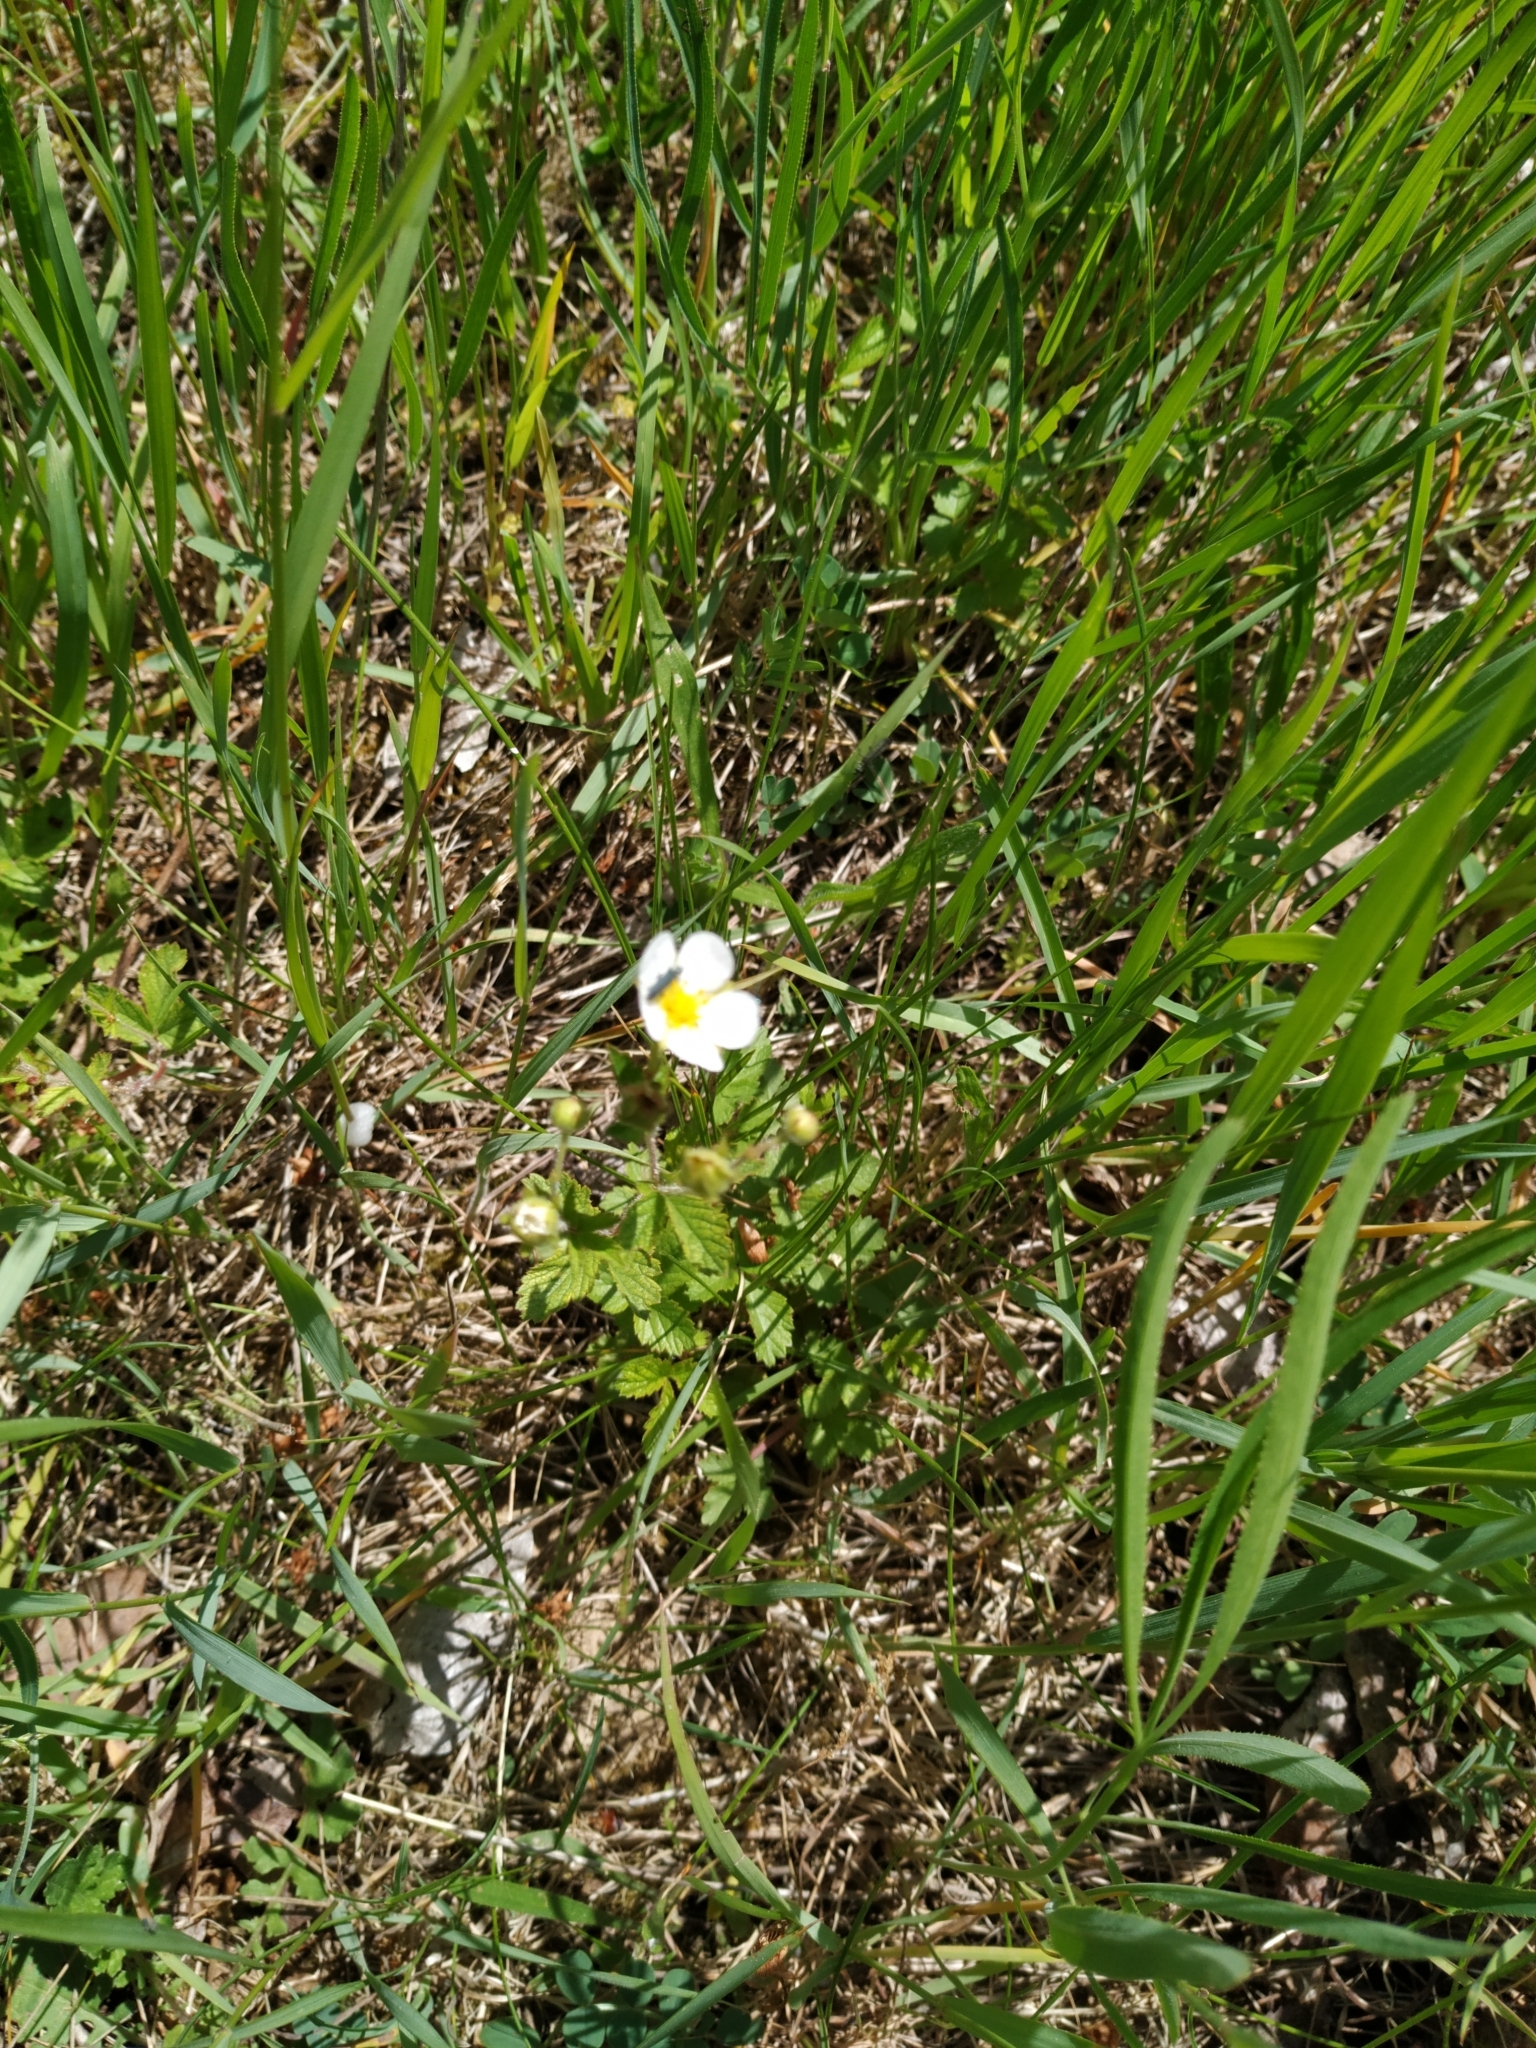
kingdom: Plantae
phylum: Tracheophyta
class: Magnoliopsida
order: Rosales
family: Rosaceae
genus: Drymocallis
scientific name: Drymocallis rupestris
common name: Rock cinquefoil
